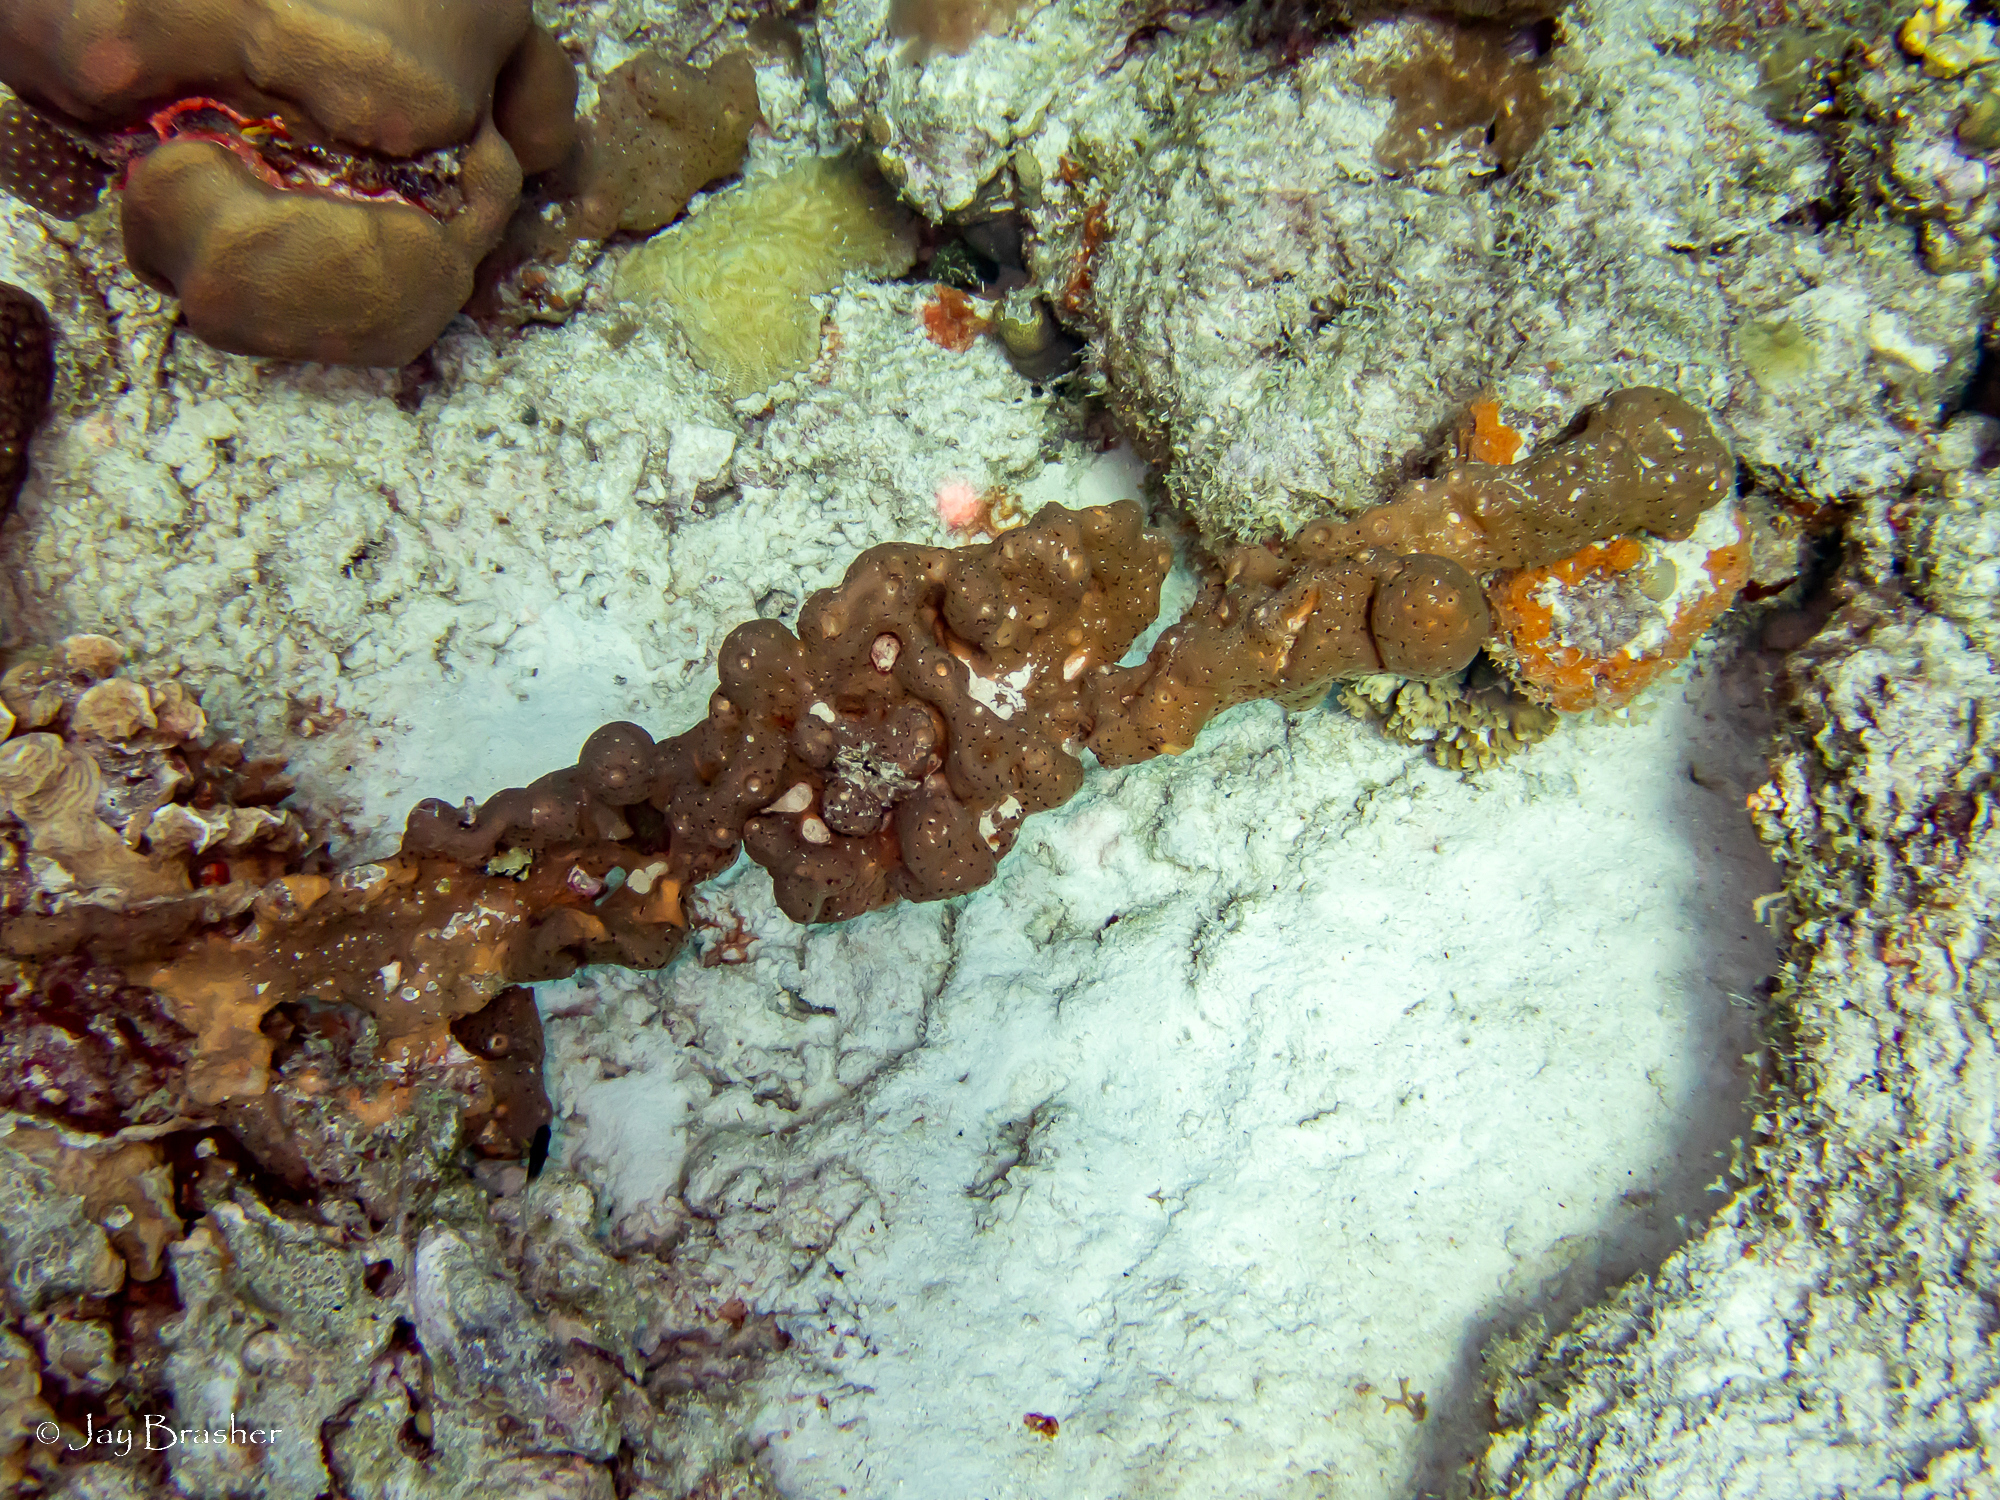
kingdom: Animalia
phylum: Cnidaria
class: Anthozoa
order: Zoantharia
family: Parazoanthidae
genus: Bergia
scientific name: Bergia puertoricense
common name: Maroon sponge zoanthid
